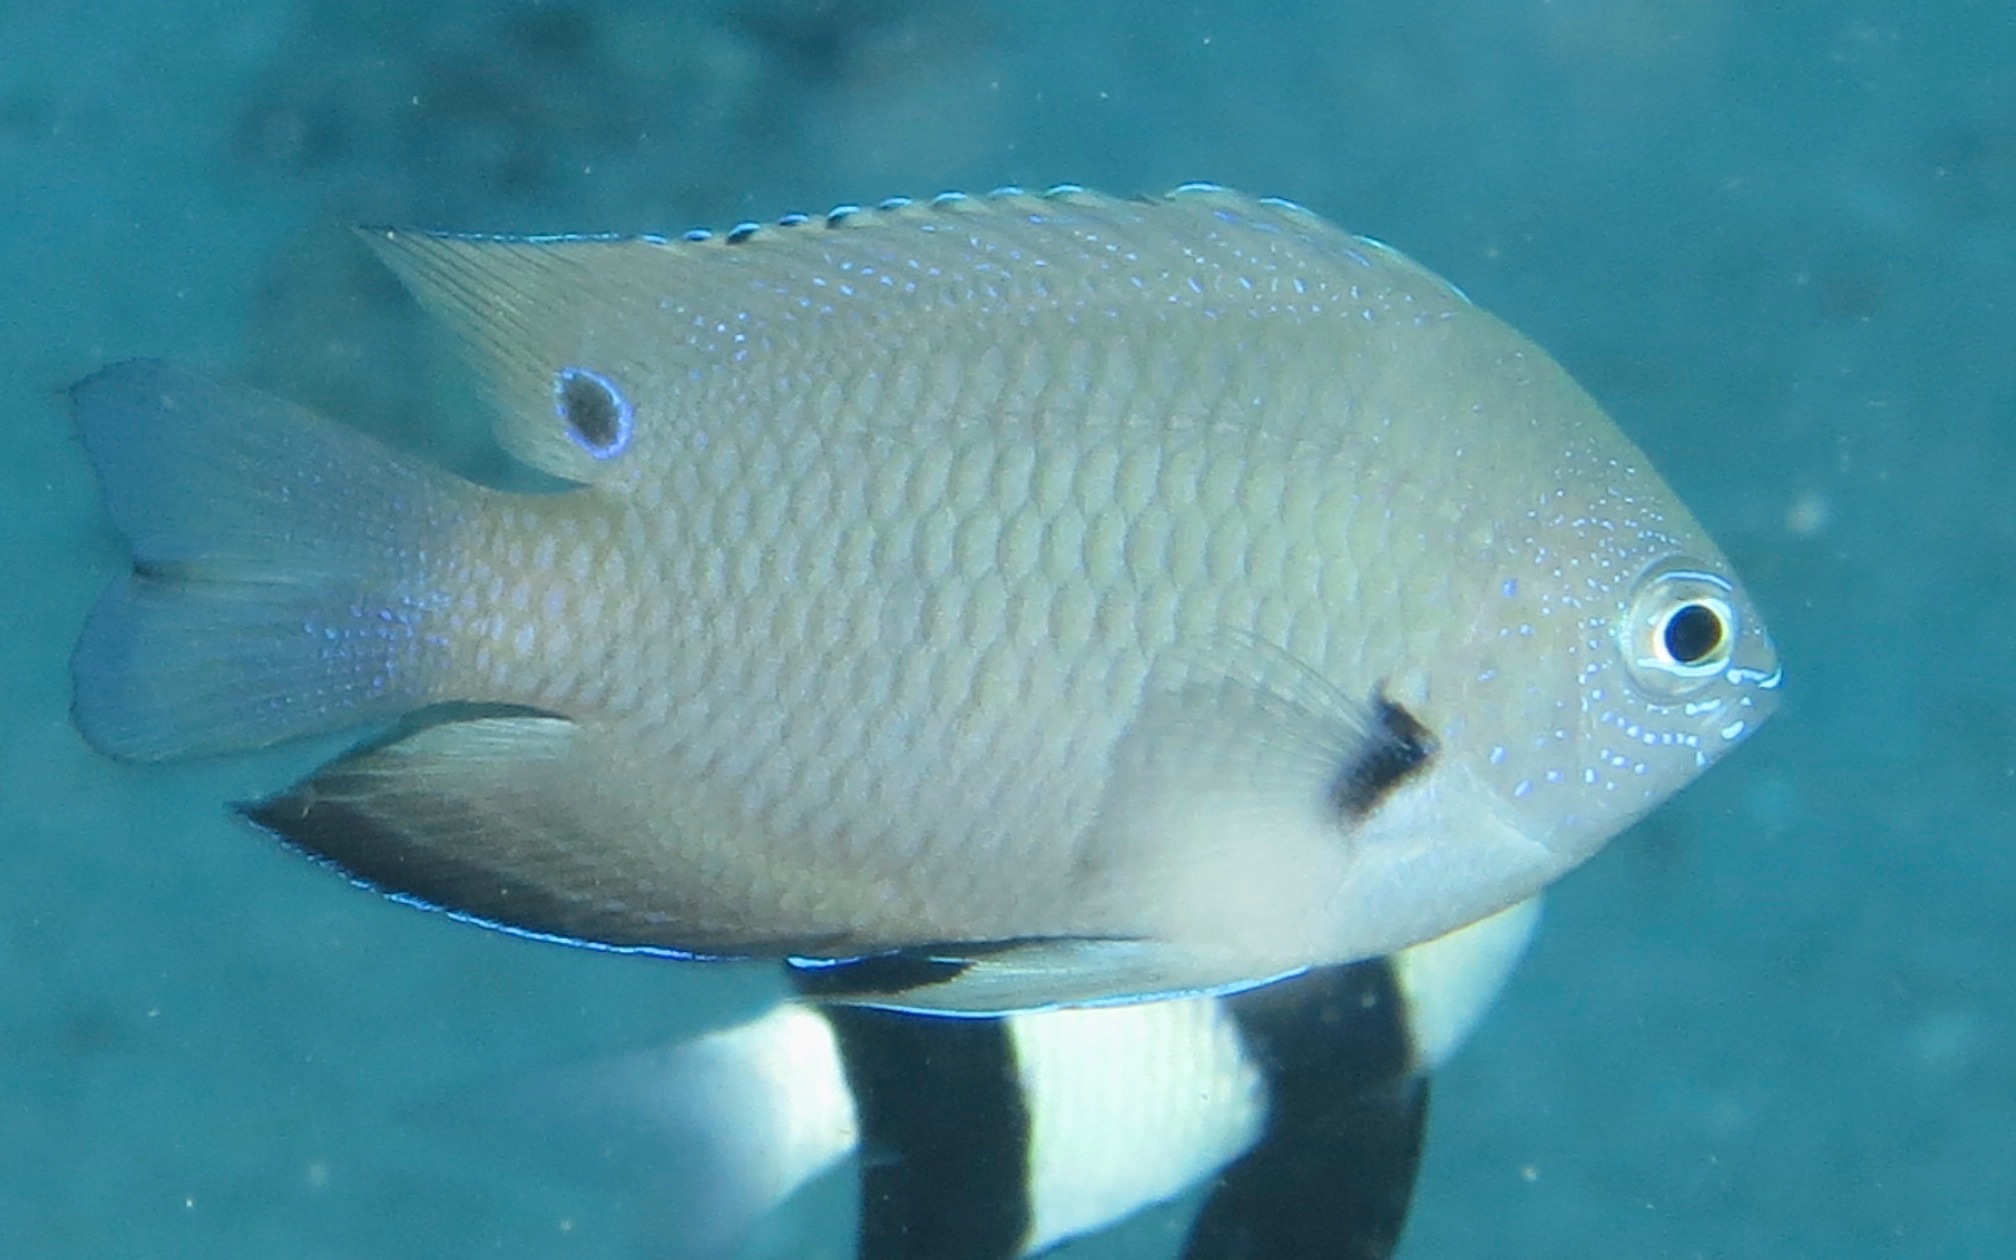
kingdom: Animalia
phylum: Chordata
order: Perciformes
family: Pomacentridae
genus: Pomacentrus
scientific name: Pomacentrus microspilus
